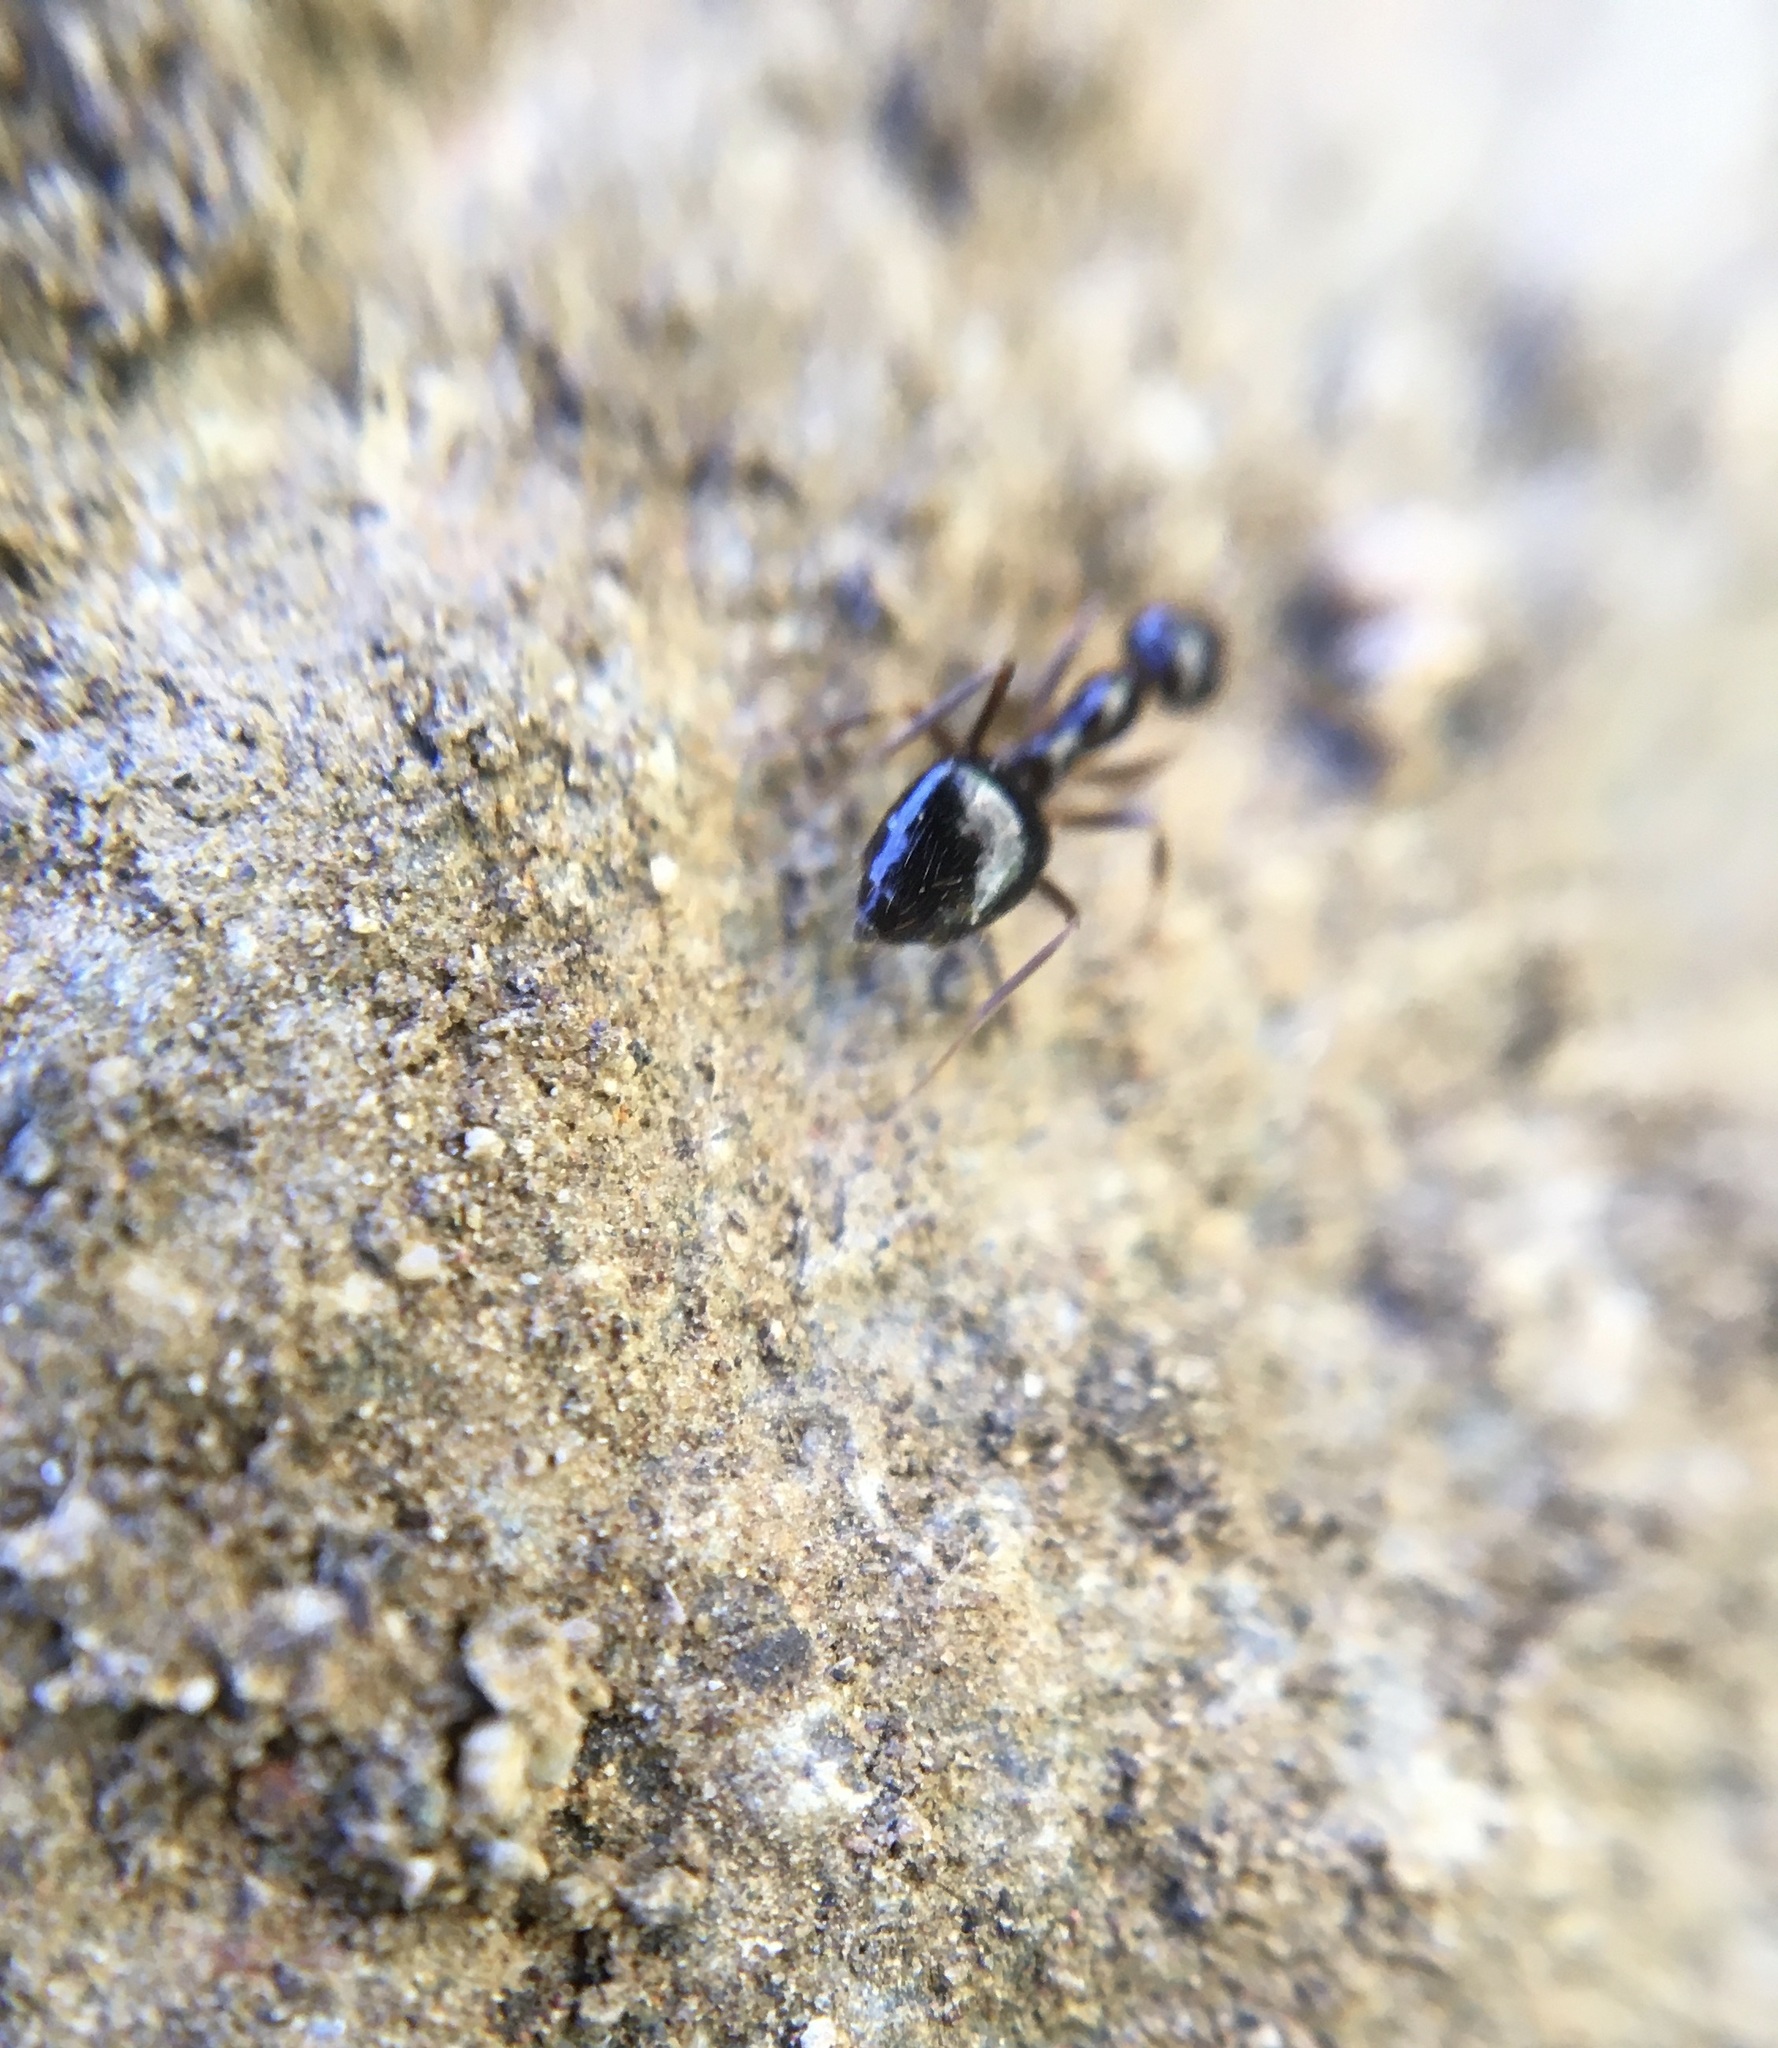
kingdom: Animalia
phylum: Arthropoda
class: Insecta
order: Hymenoptera
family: Formicidae
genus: Prenolepis
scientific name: Prenolepis imparis
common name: Small honey ant
